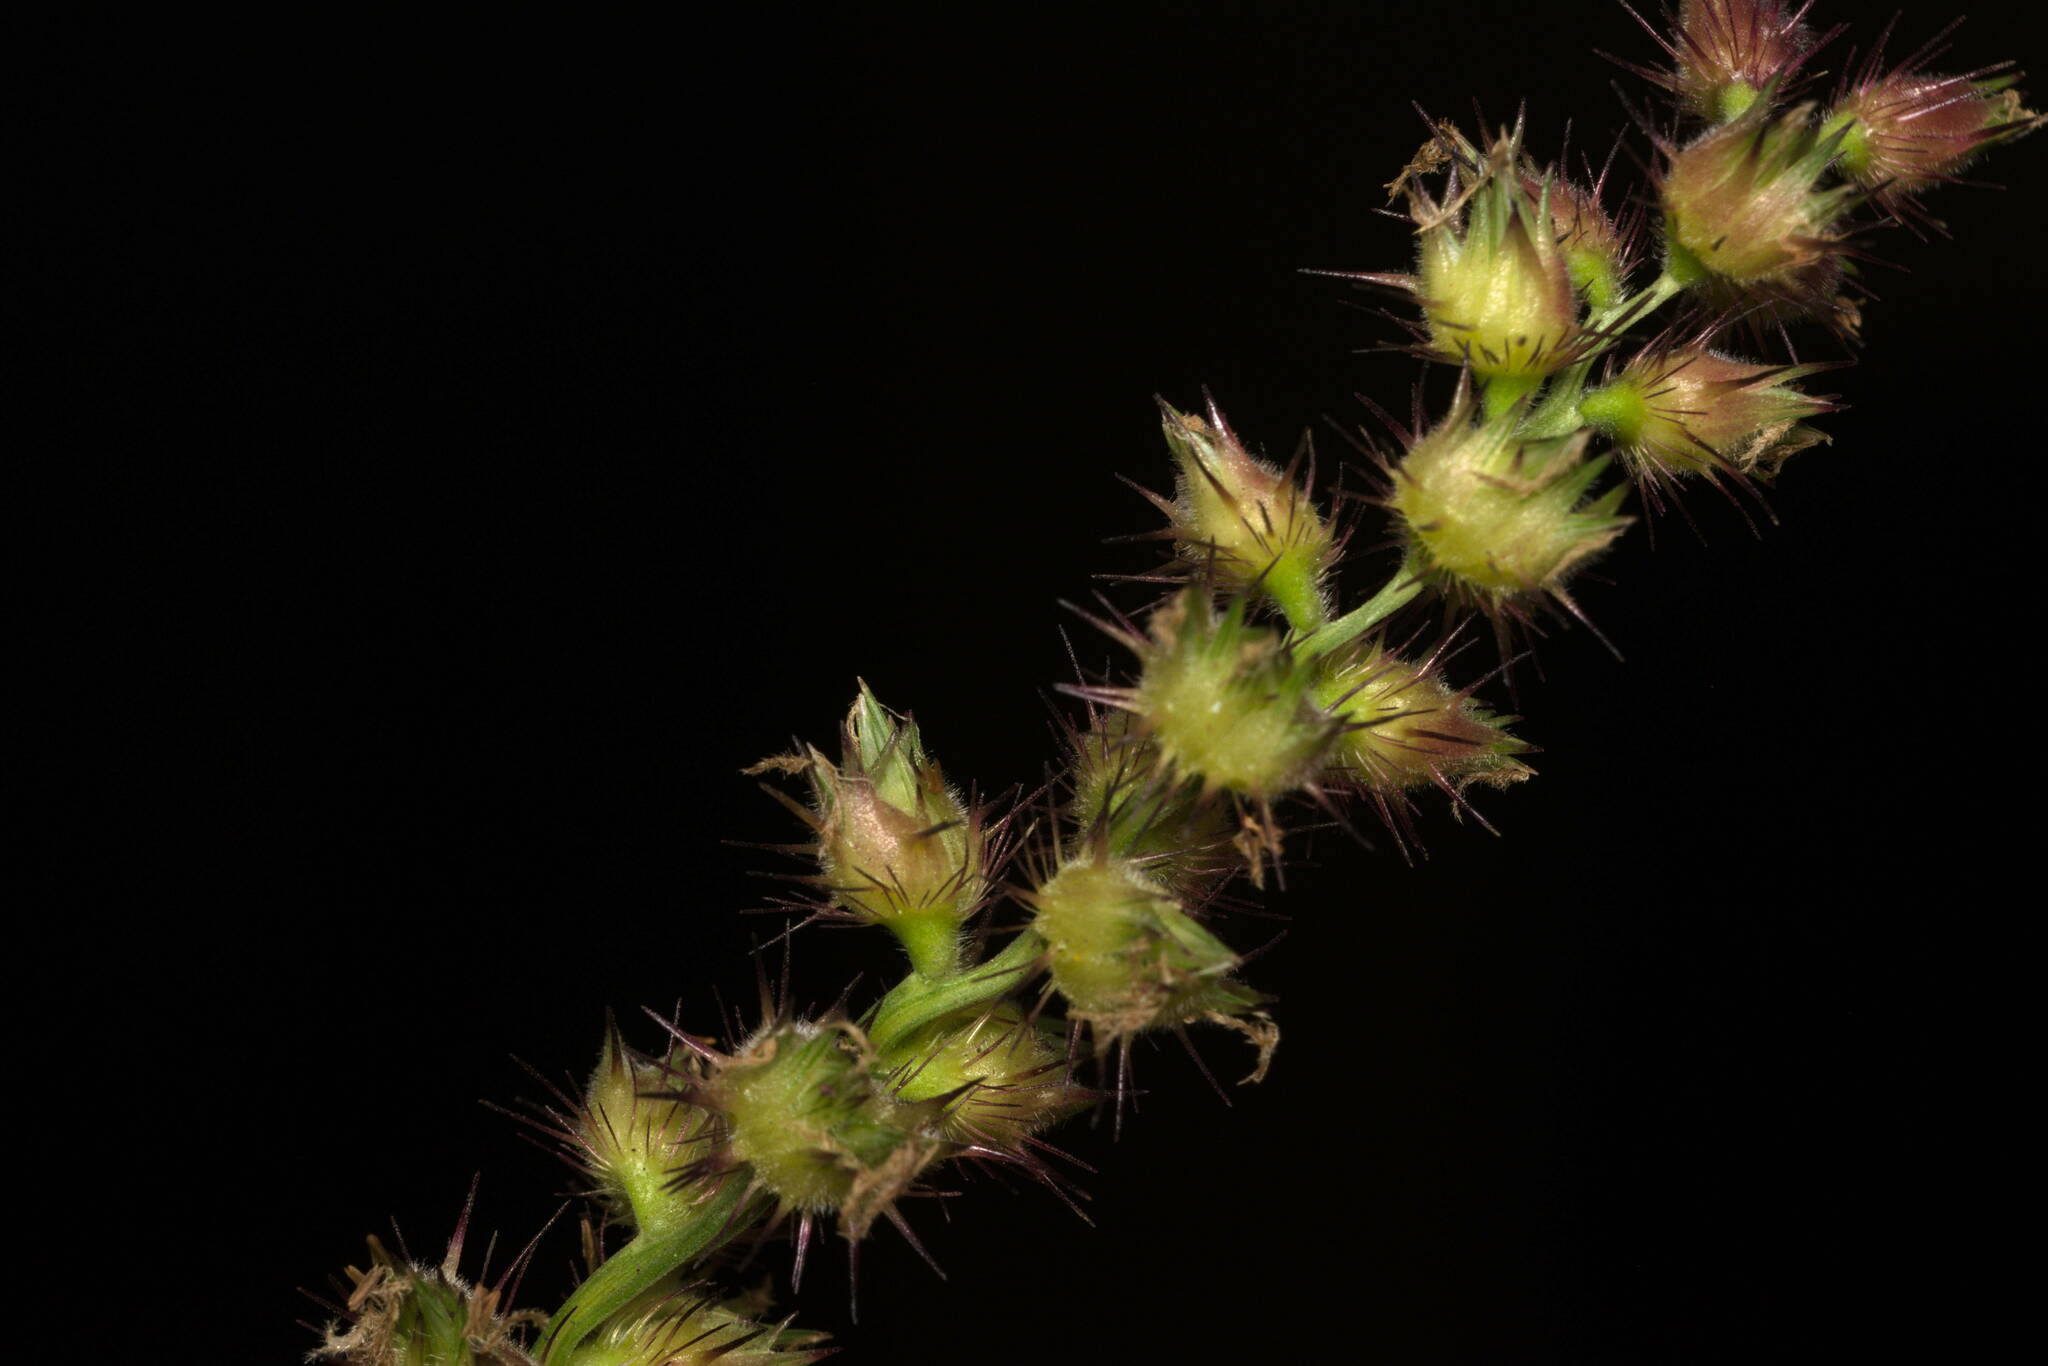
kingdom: Plantae
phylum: Tracheophyta
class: Liliopsida
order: Poales
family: Poaceae
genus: Cenchrus
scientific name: Cenchrus echinatus
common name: Southern sandbur
